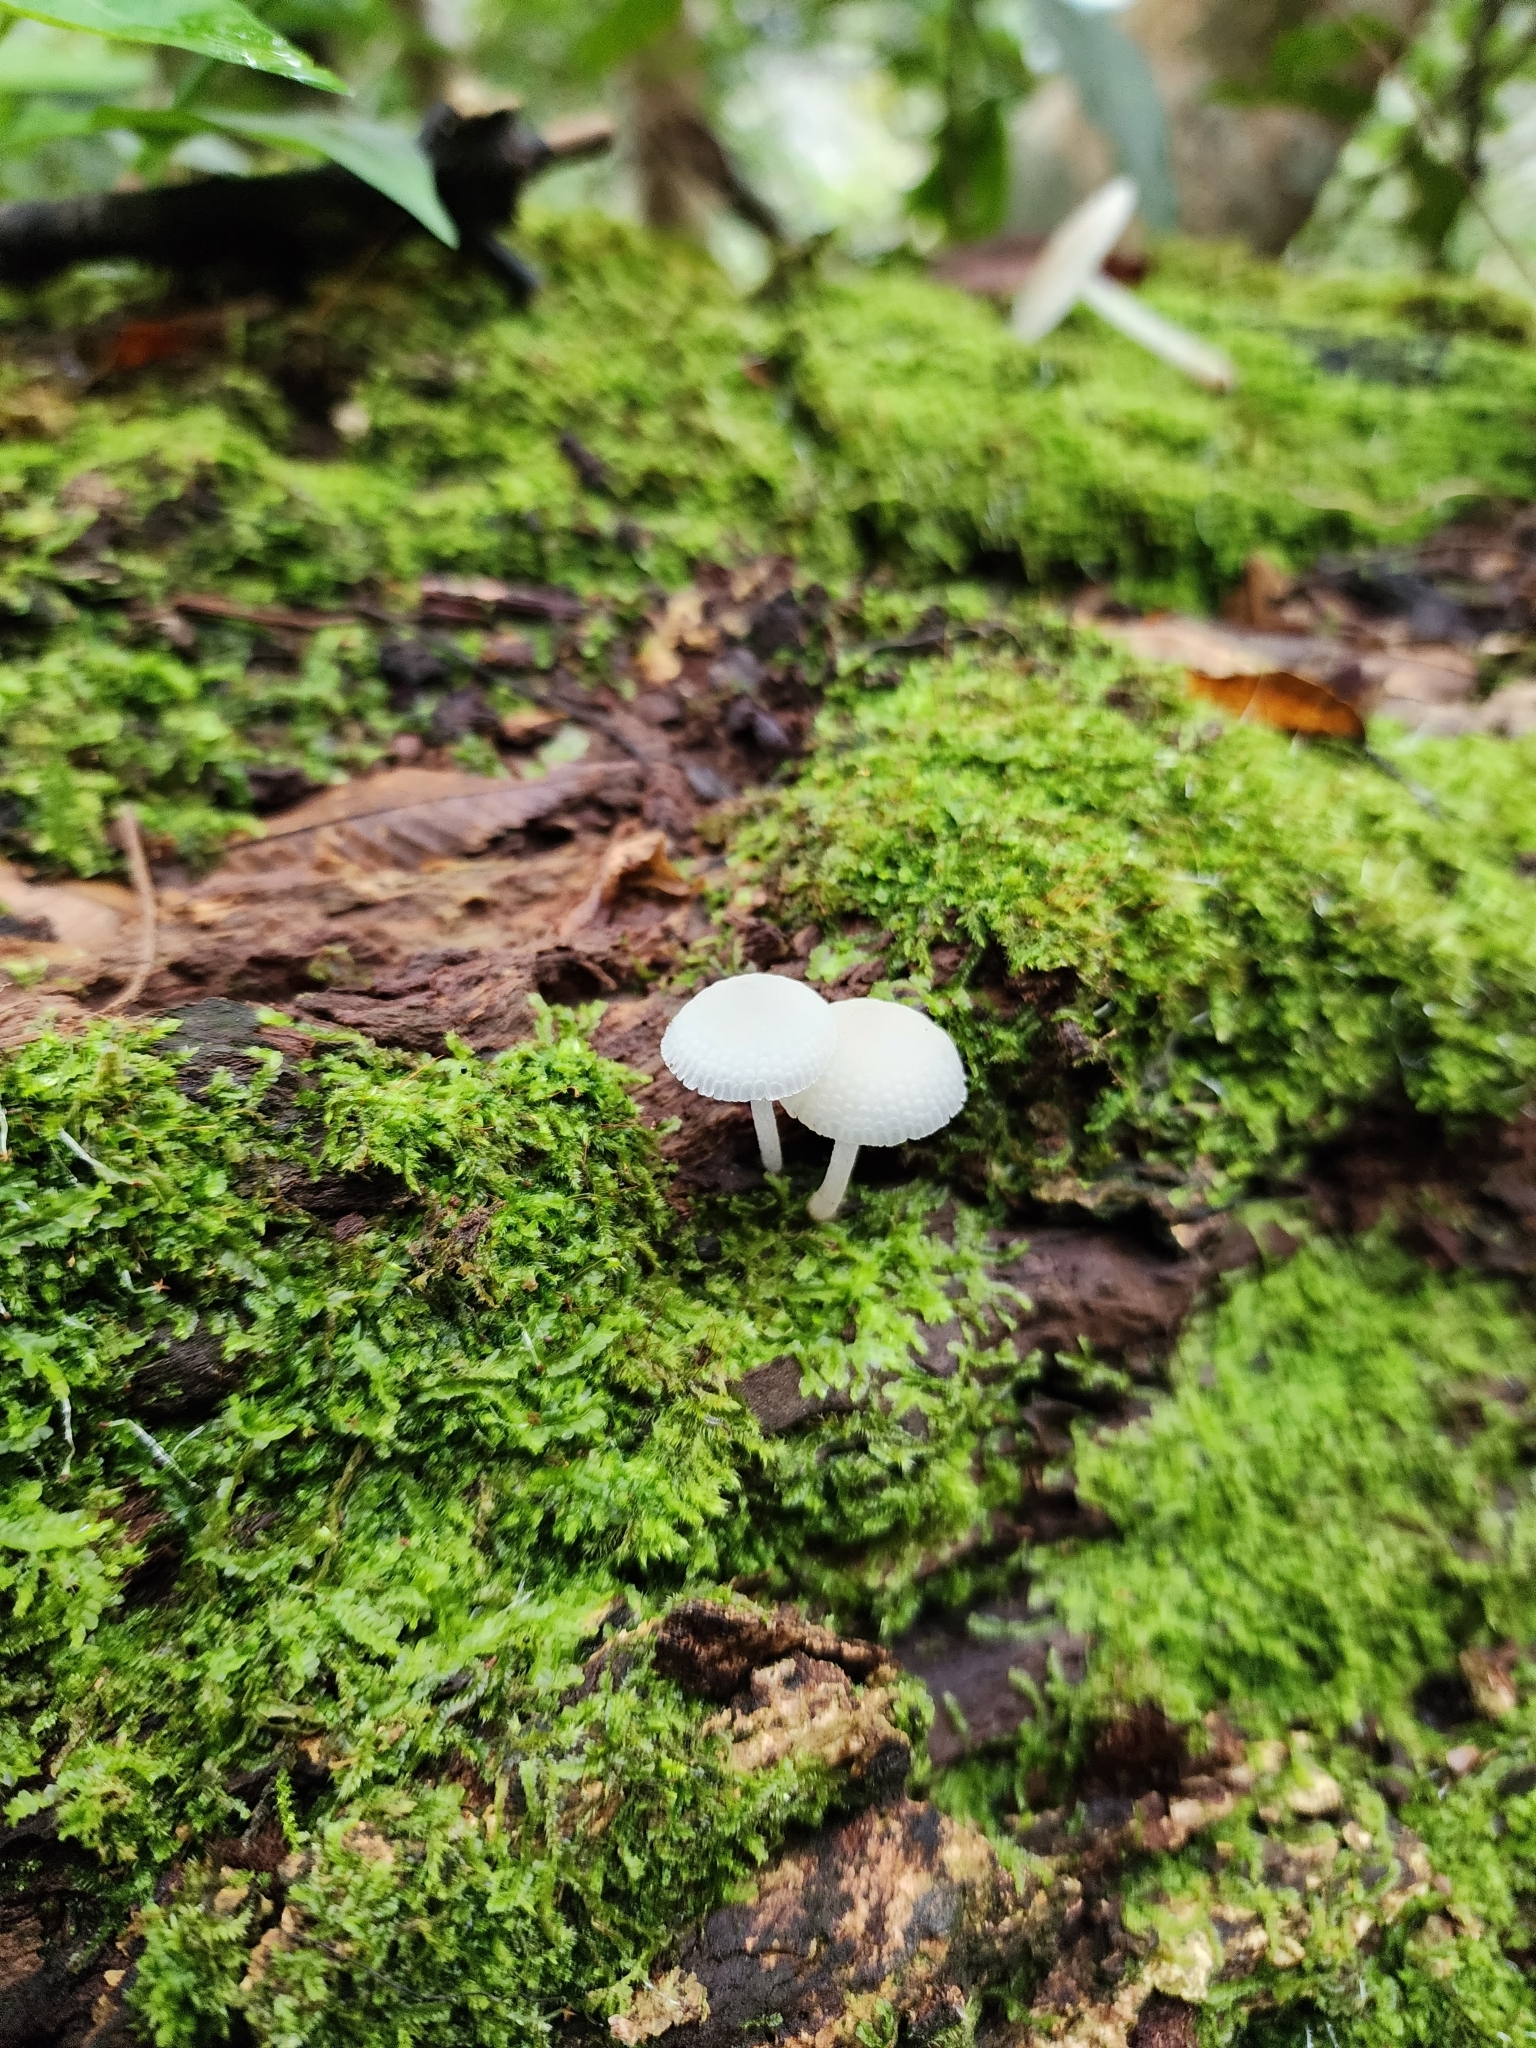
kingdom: Fungi
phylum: Basidiomycota
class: Agaricomycetes
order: Agaricales
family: Mycenaceae
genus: Filoboletus
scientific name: Filoboletus manipularis
